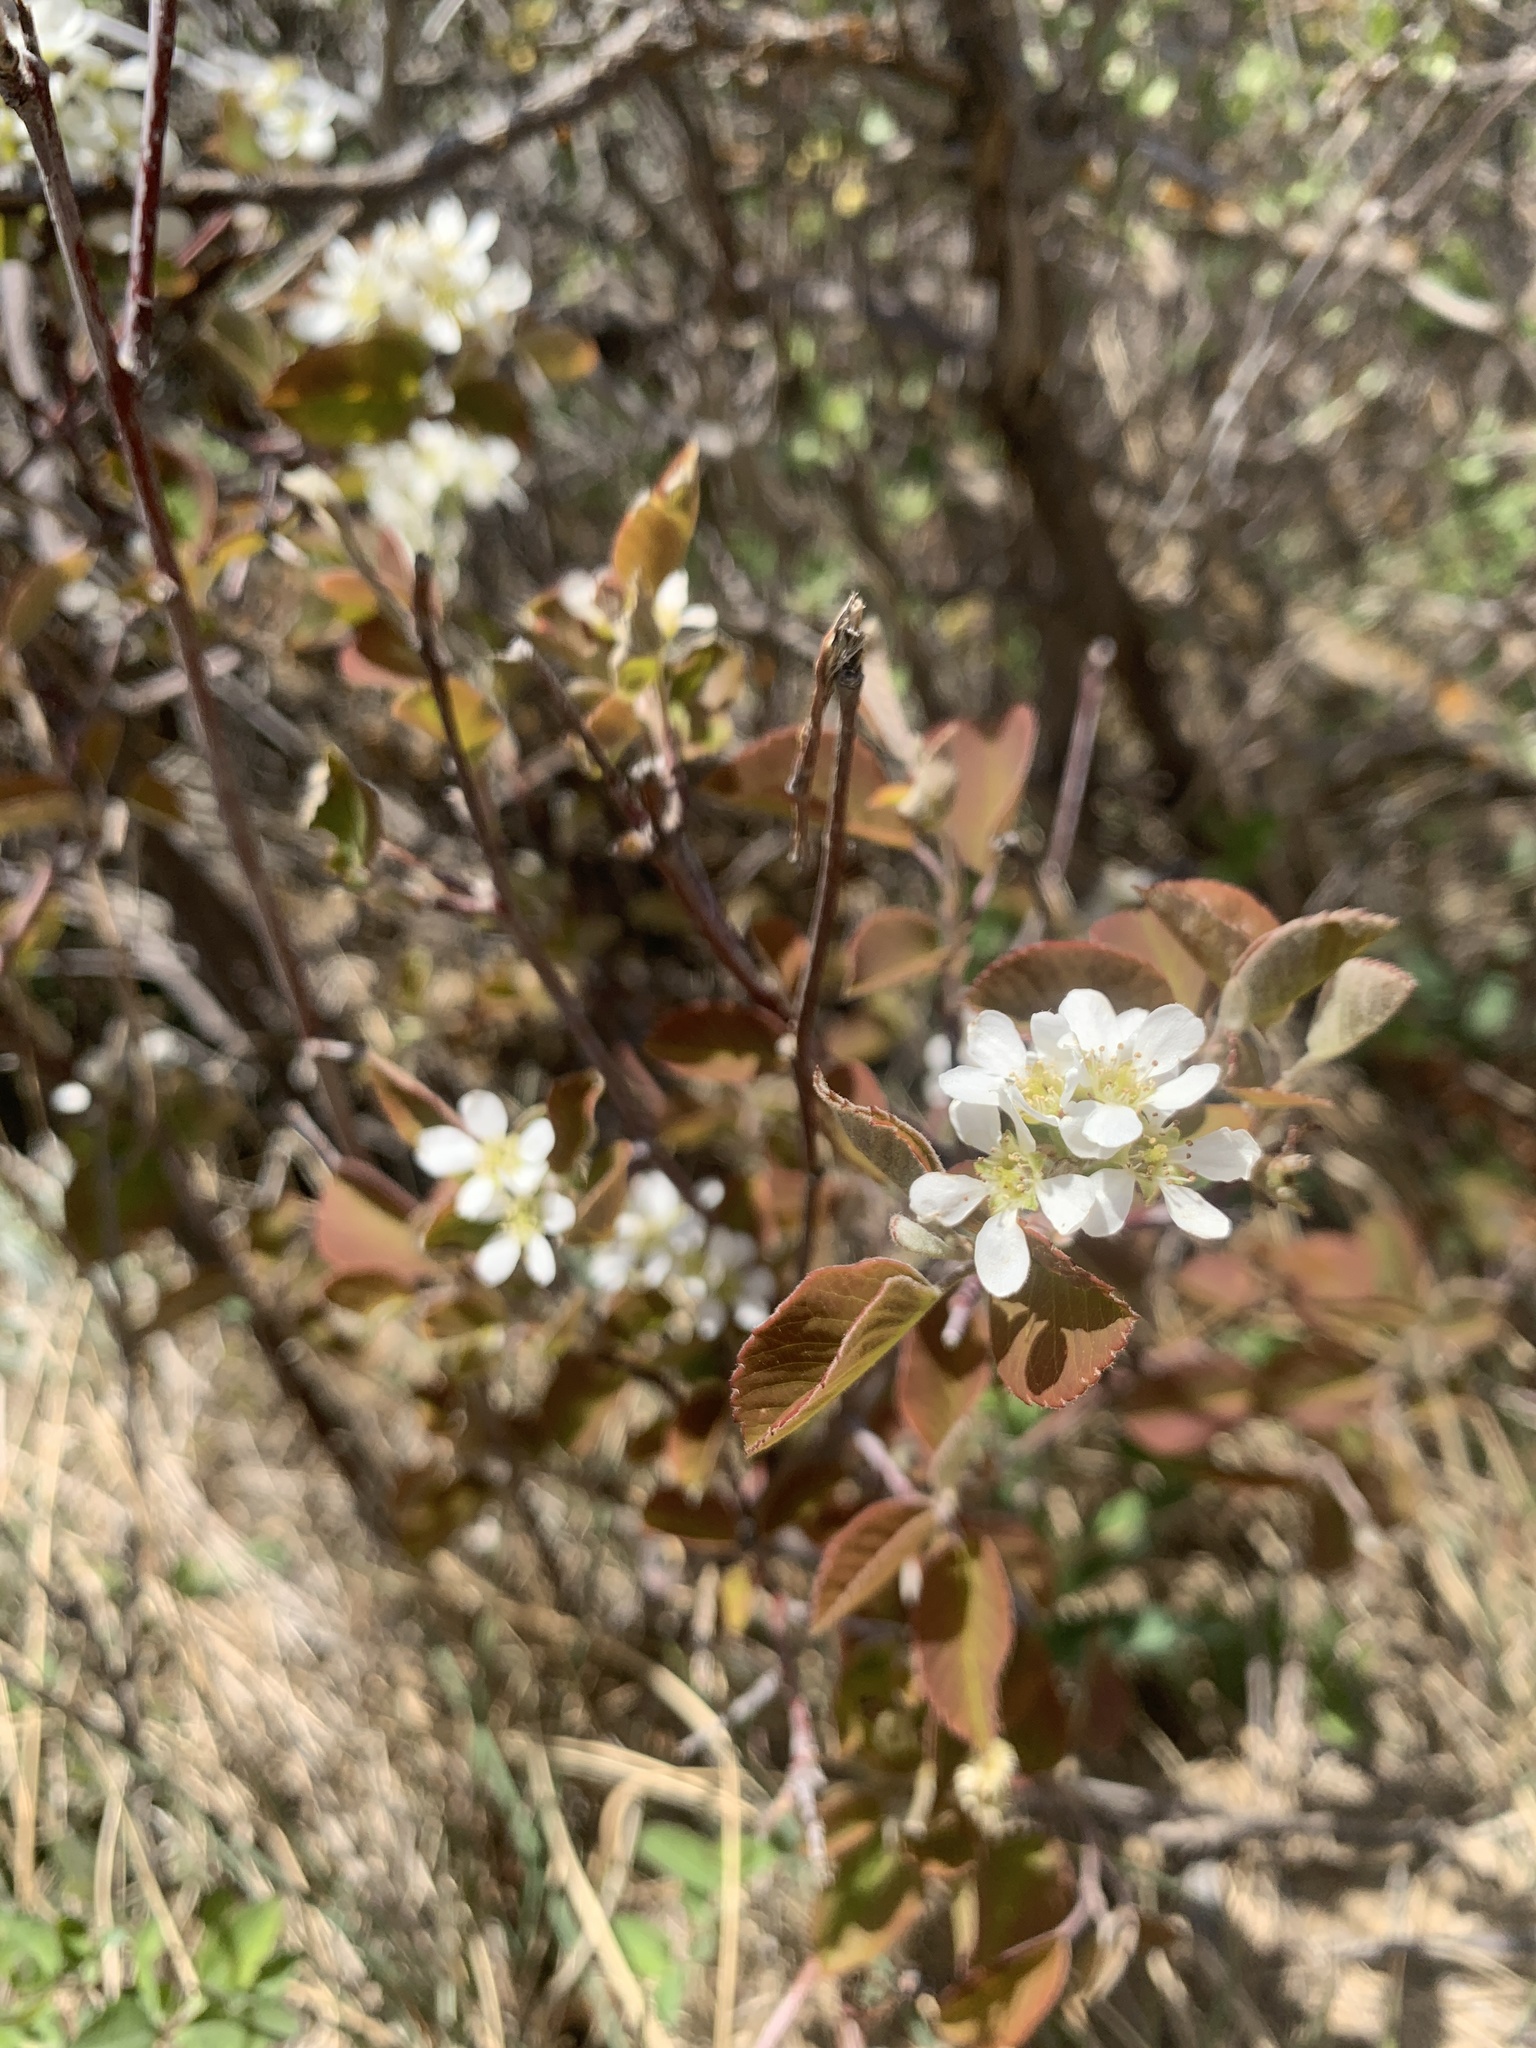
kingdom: Plantae
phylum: Tracheophyta
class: Magnoliopsida
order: Rosales
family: Rosaceae
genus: Amelanchier
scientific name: Amelanchier alnifolia
